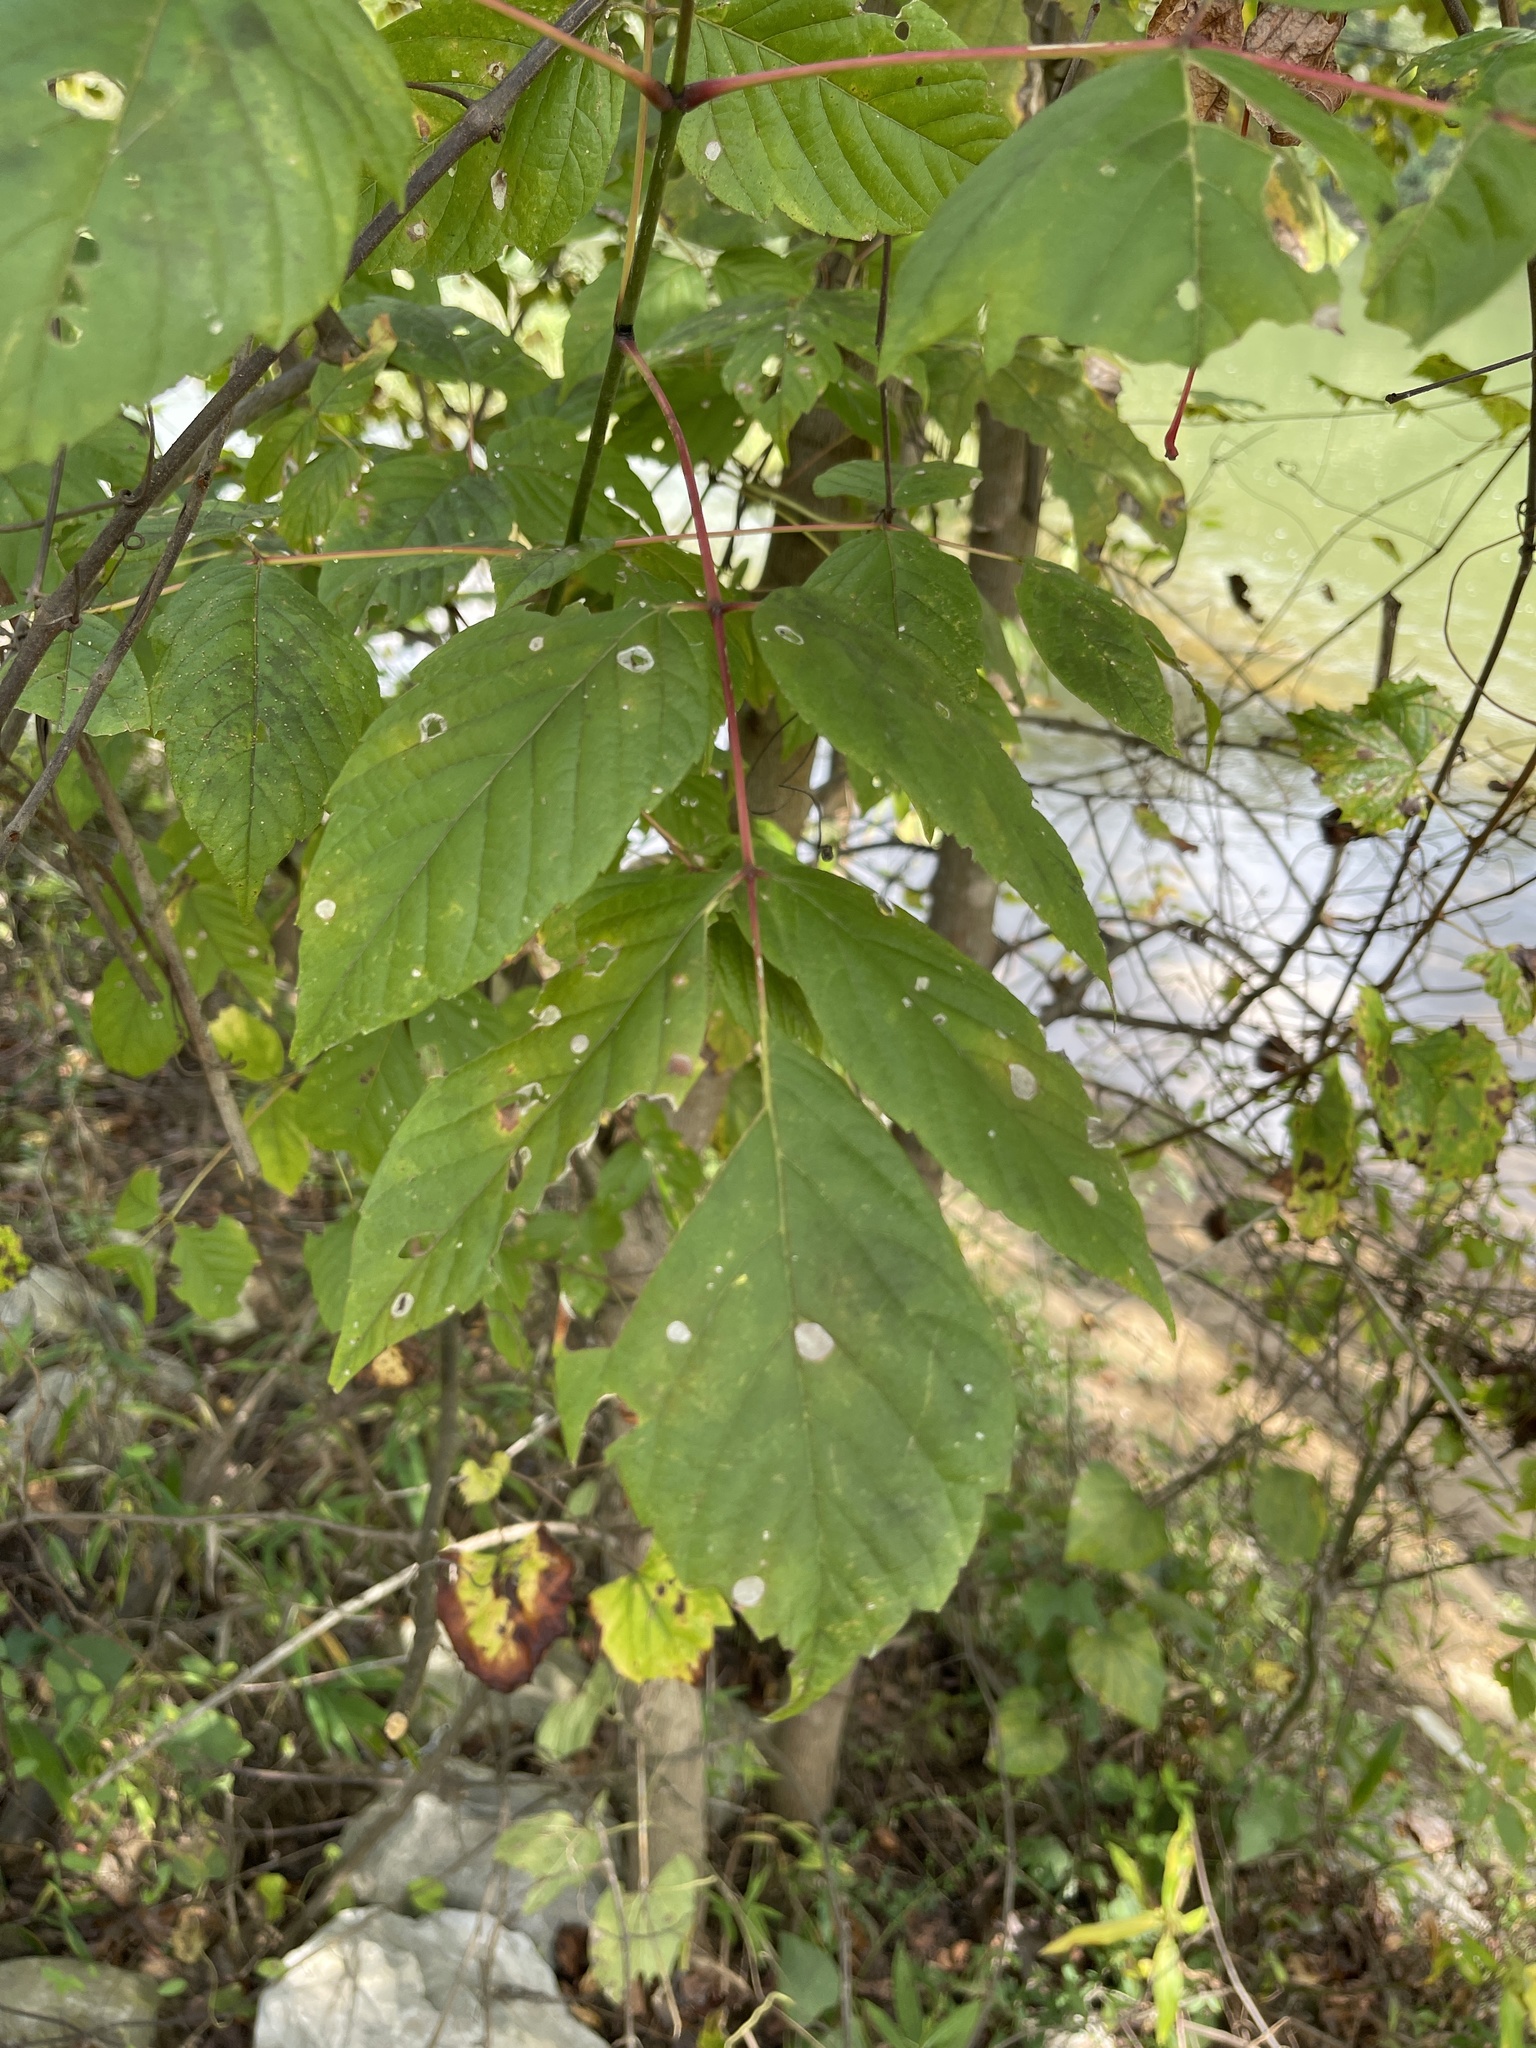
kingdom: Plantae
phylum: Tracheophyta
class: Magnoliopsida
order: Sapindales
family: Sapindaceae
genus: Acer
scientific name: Acer negundo
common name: Ashleaf maple
